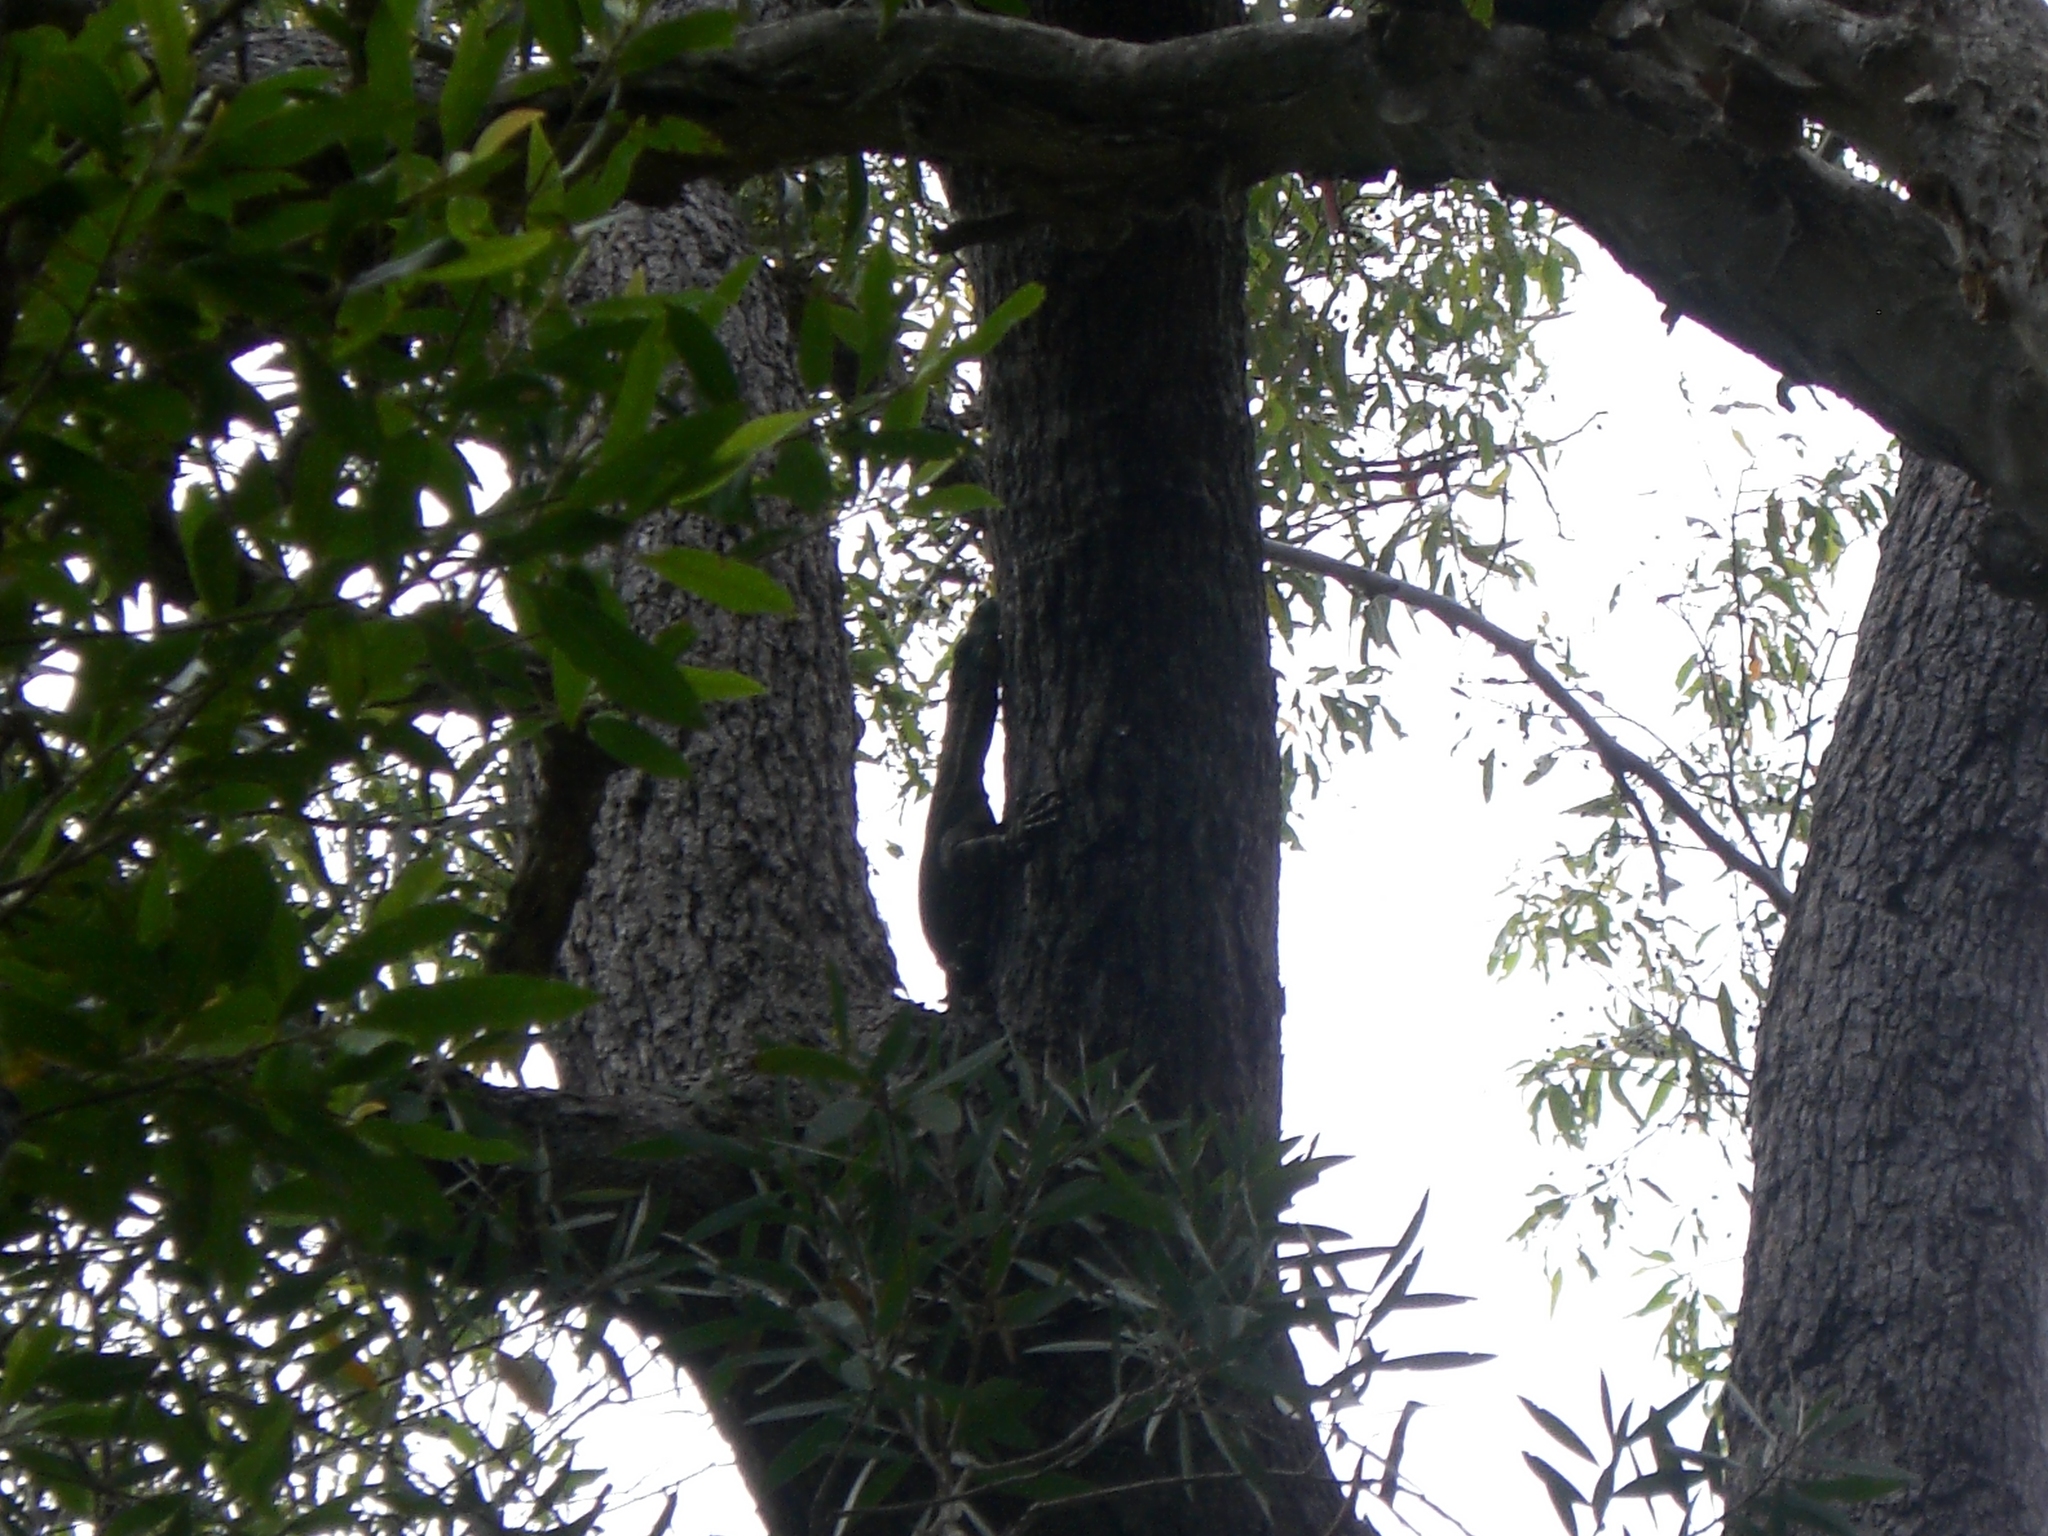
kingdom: Animalia
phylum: Chordata
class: Squamata
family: Varanidae
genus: Varanus
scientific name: Varanus varius
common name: Lace monitor
